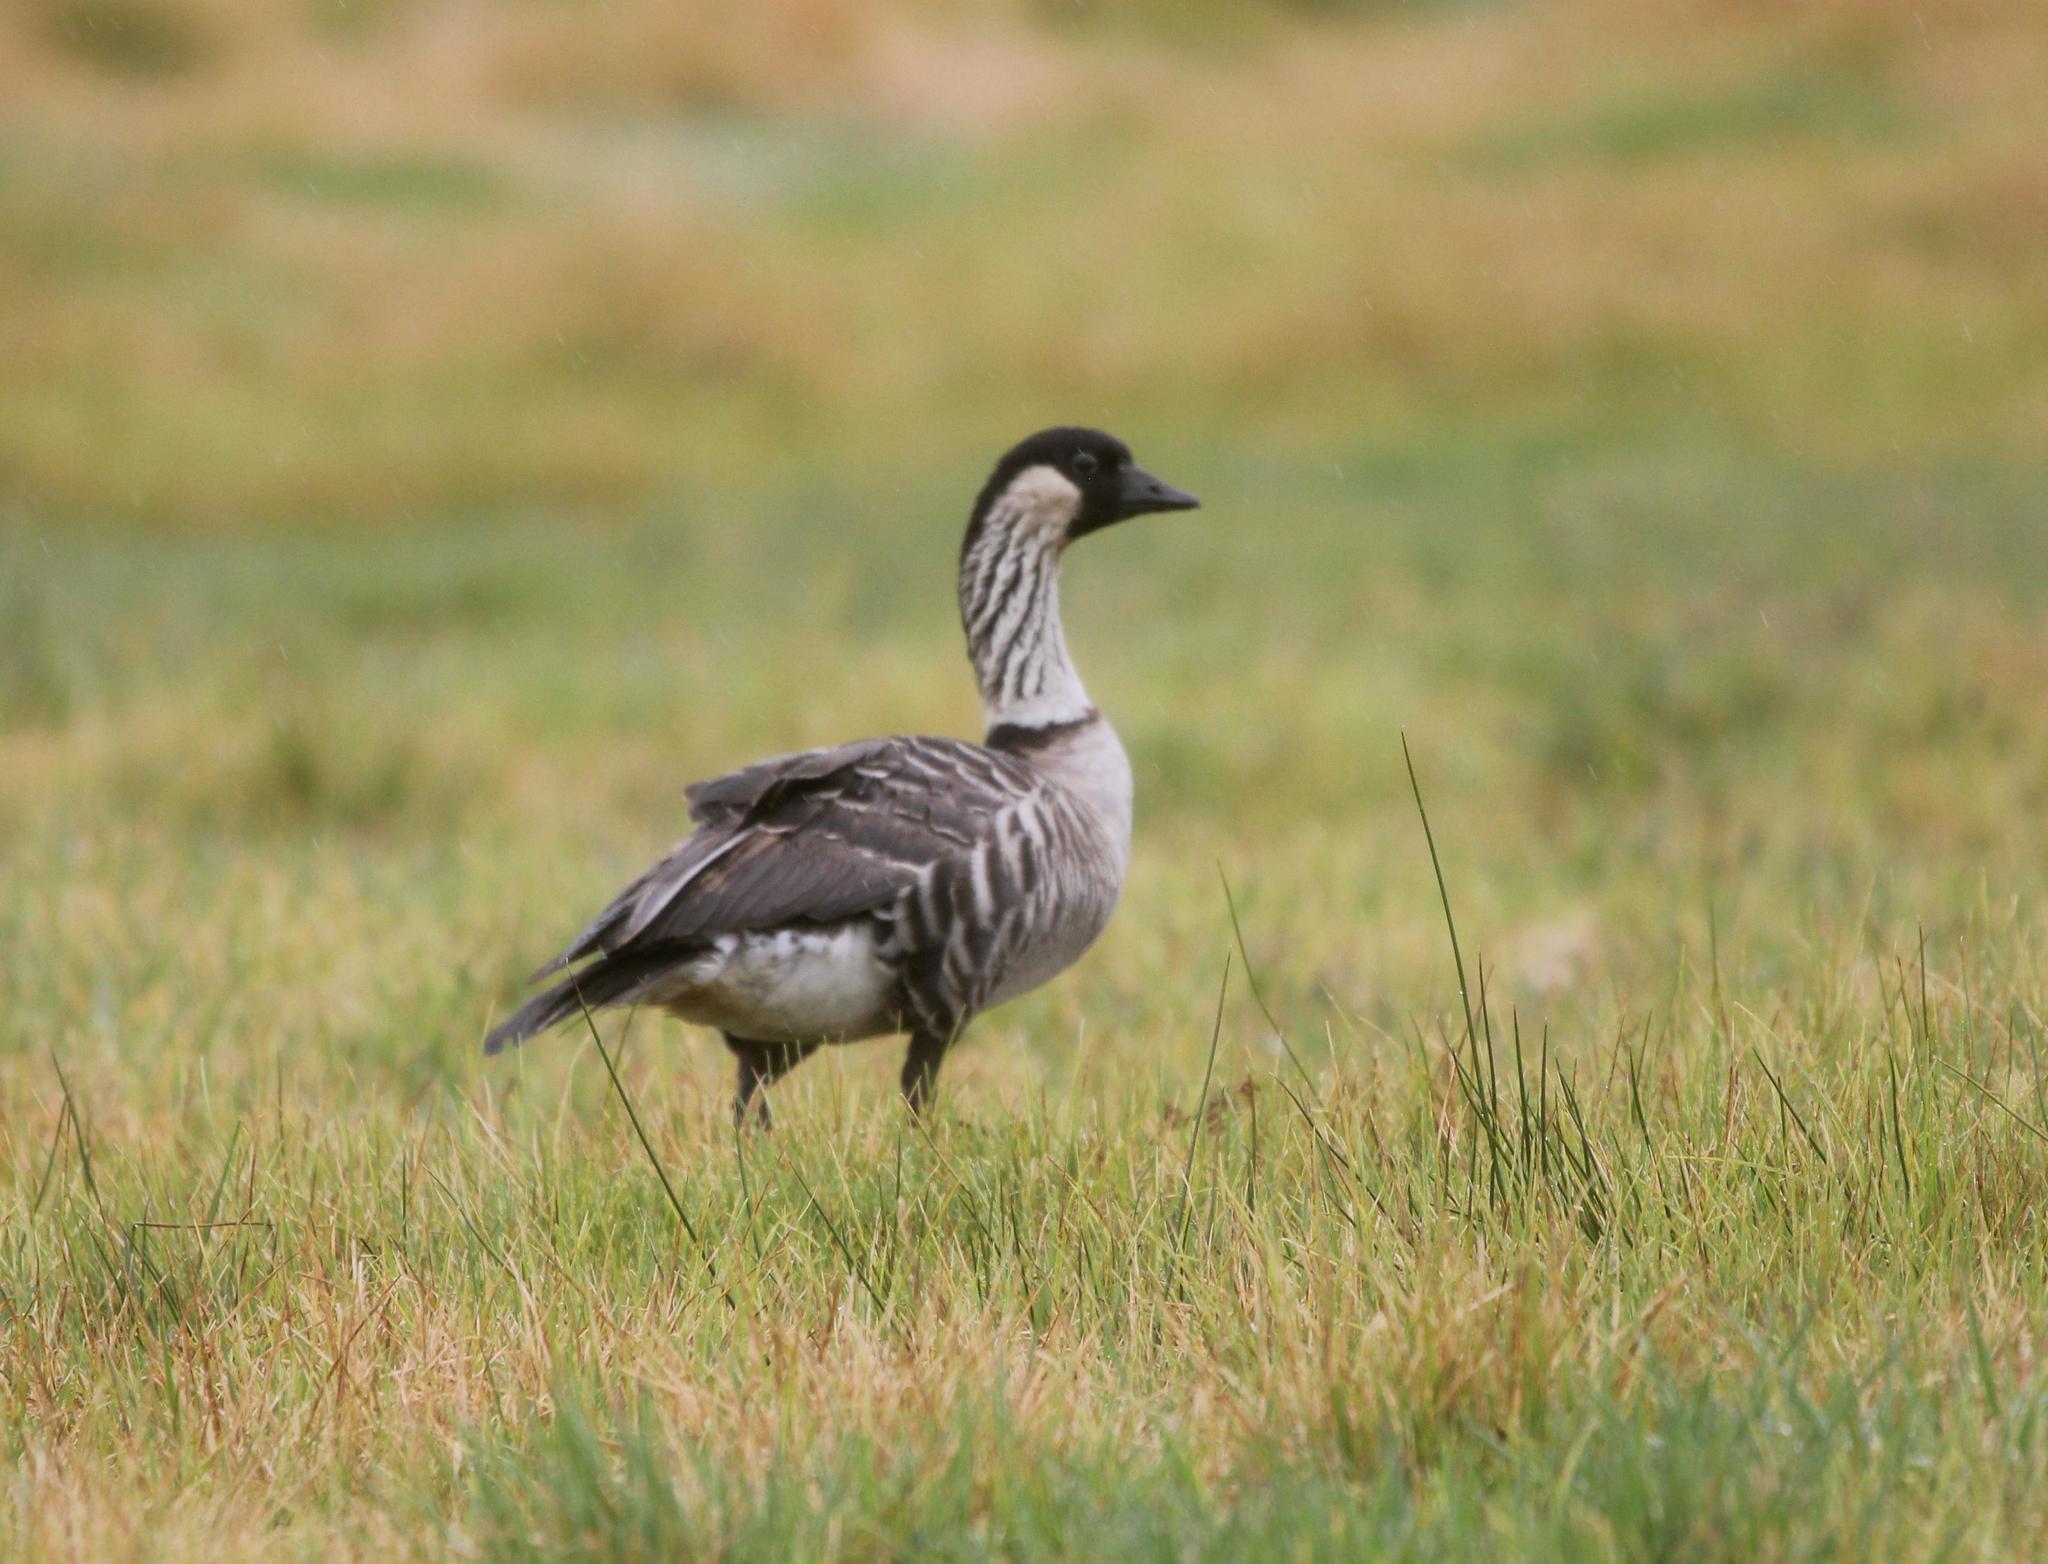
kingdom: Animalia
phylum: Chordata
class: Aves
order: Anseriformes
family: Anatidae
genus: Branta
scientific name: Branta sandvicensis
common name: Nene
